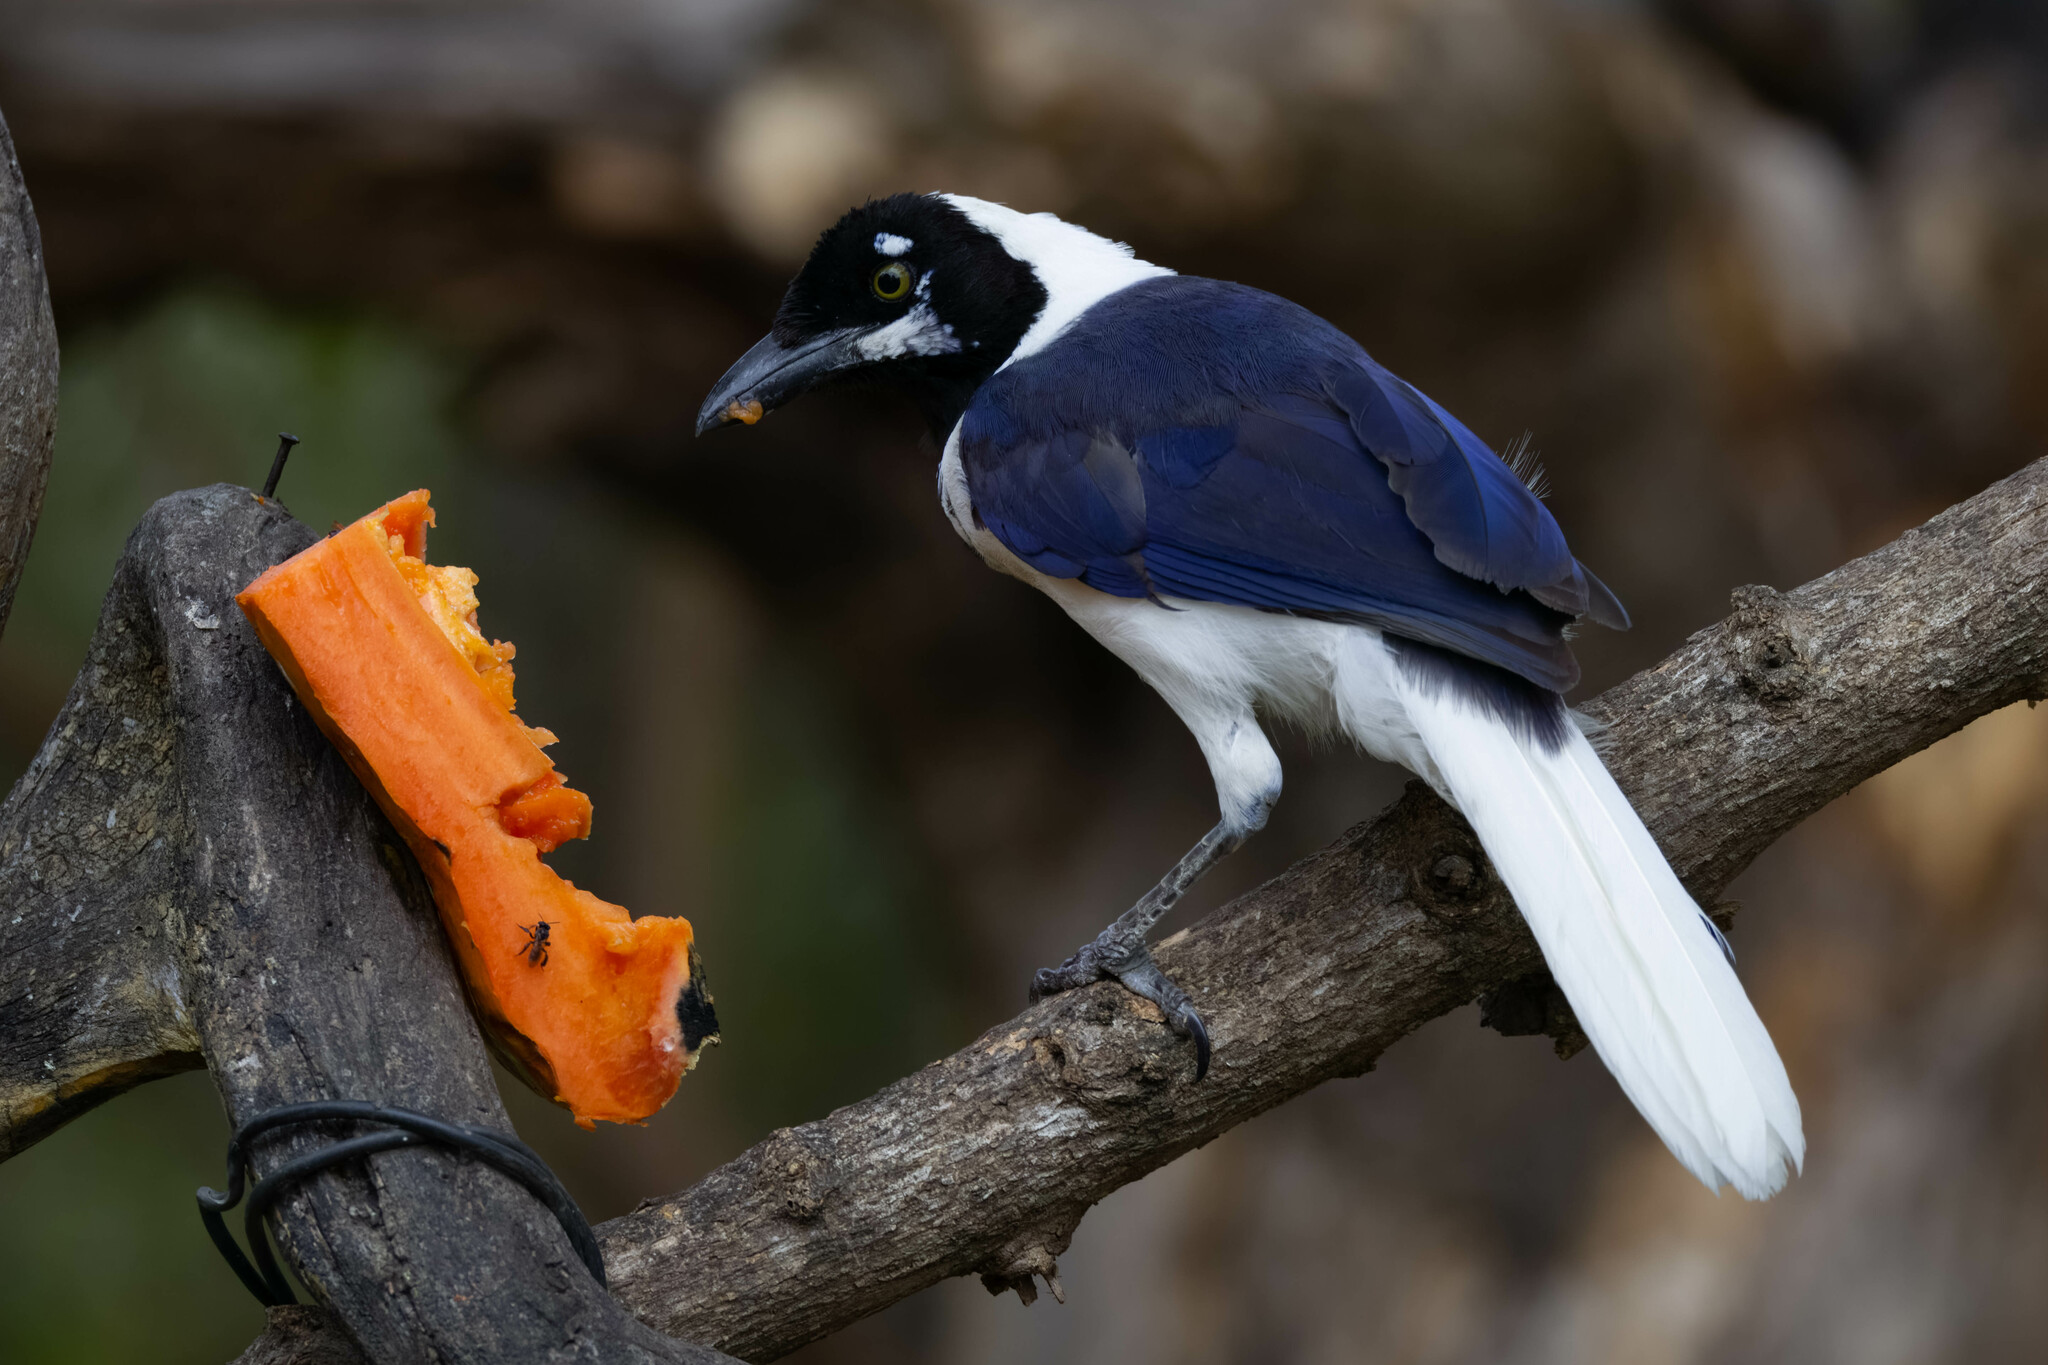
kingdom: Animalia
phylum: Chordata
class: Aves
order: Passeriformes
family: Corvidae
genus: Cyanocorax
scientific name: Cyanocorax mystacalis
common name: White-tailed jay
